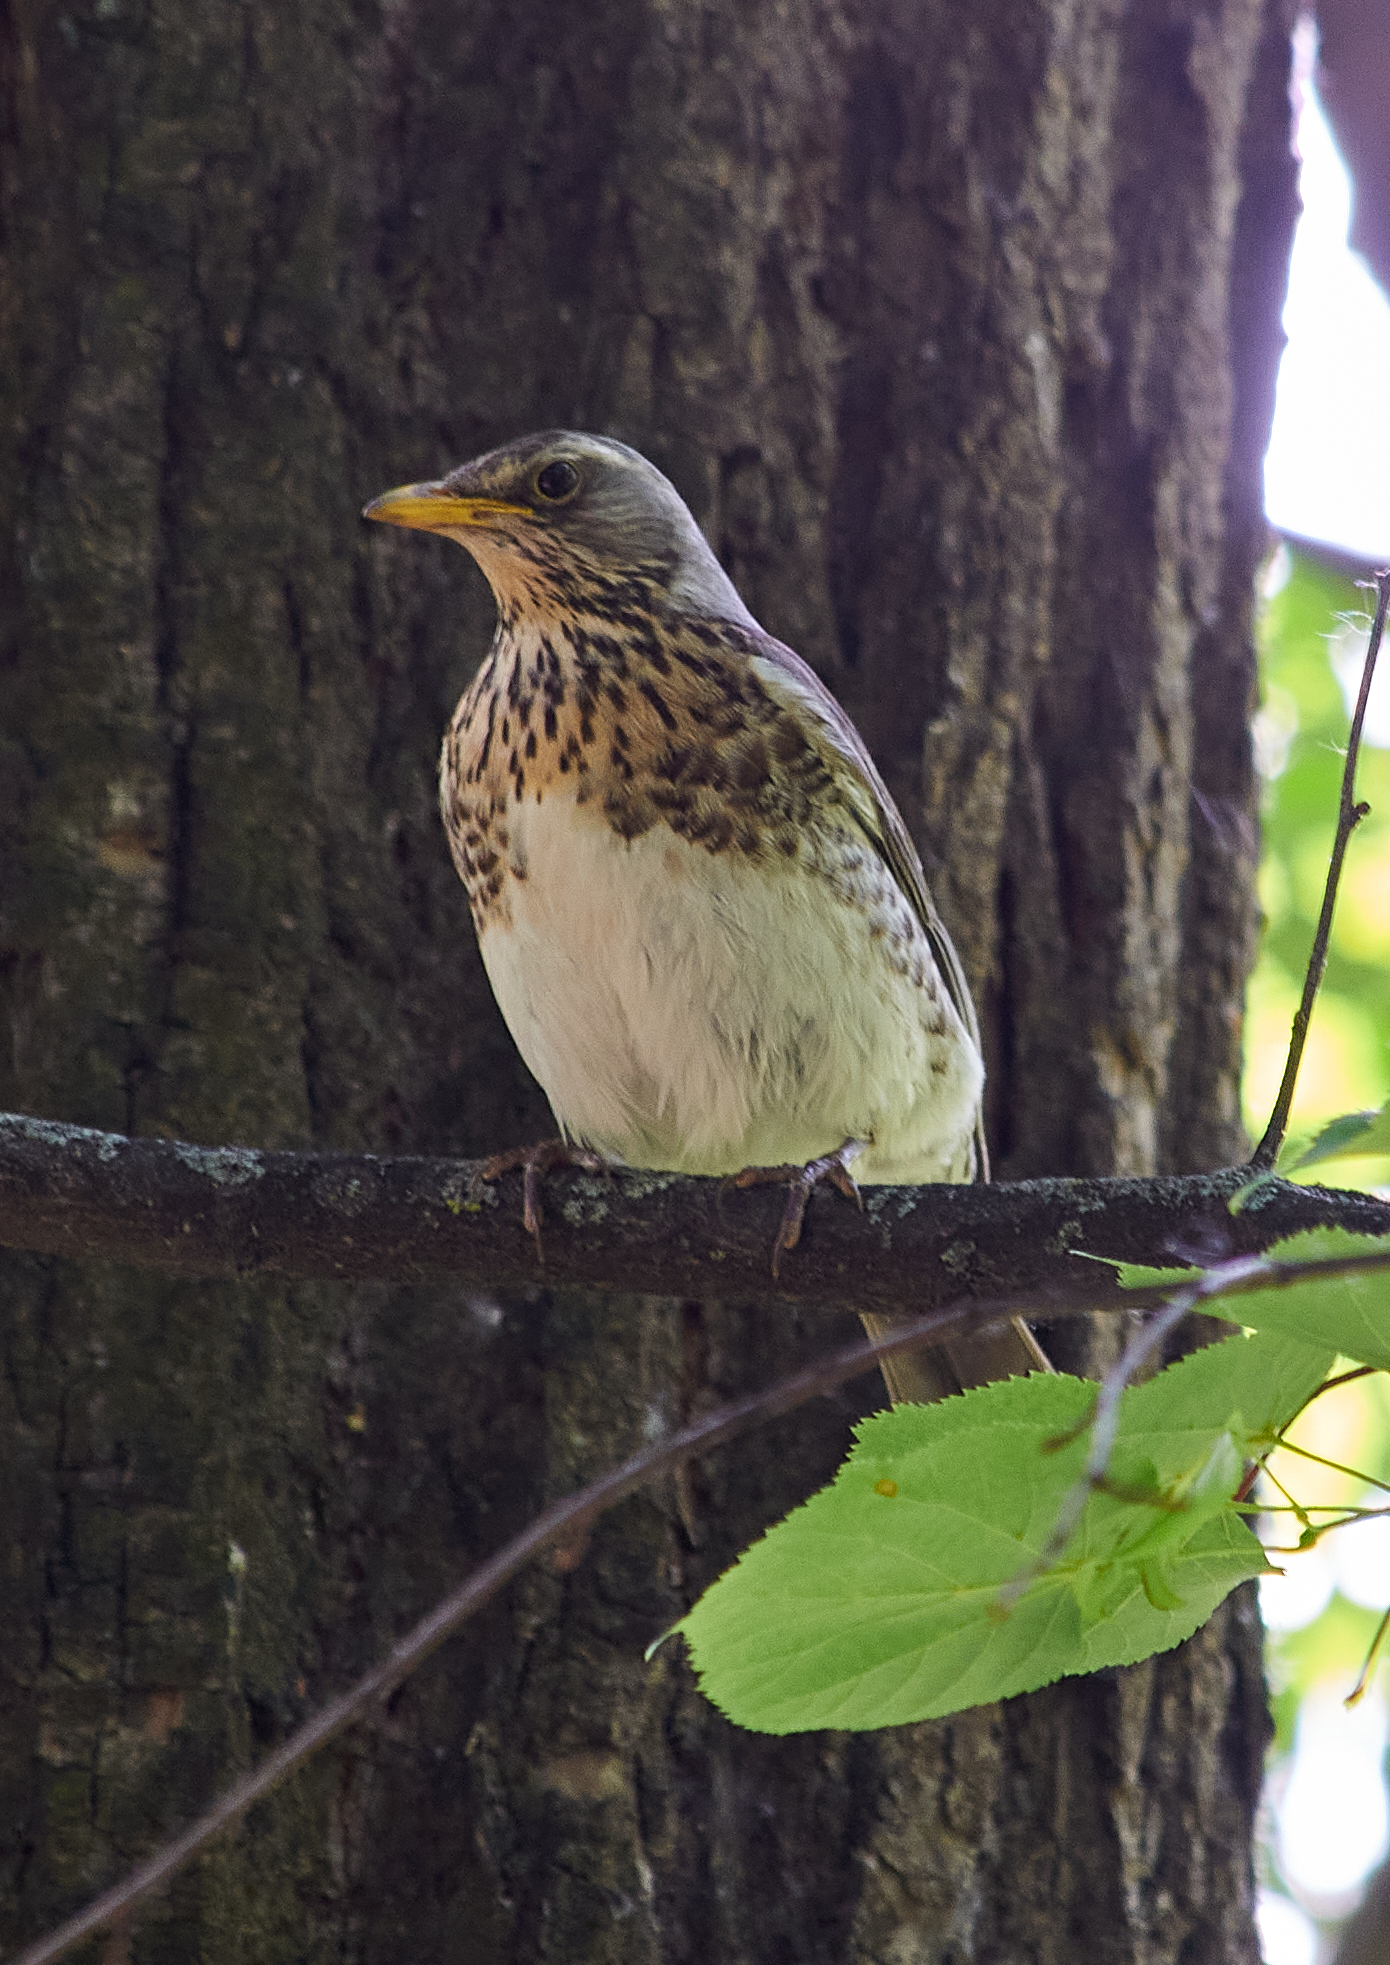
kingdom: Animalia
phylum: Chordata
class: Aves
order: Passeriformes
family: Turdidae
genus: Turdus
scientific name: Turdus pilaris
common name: Fieldfare
